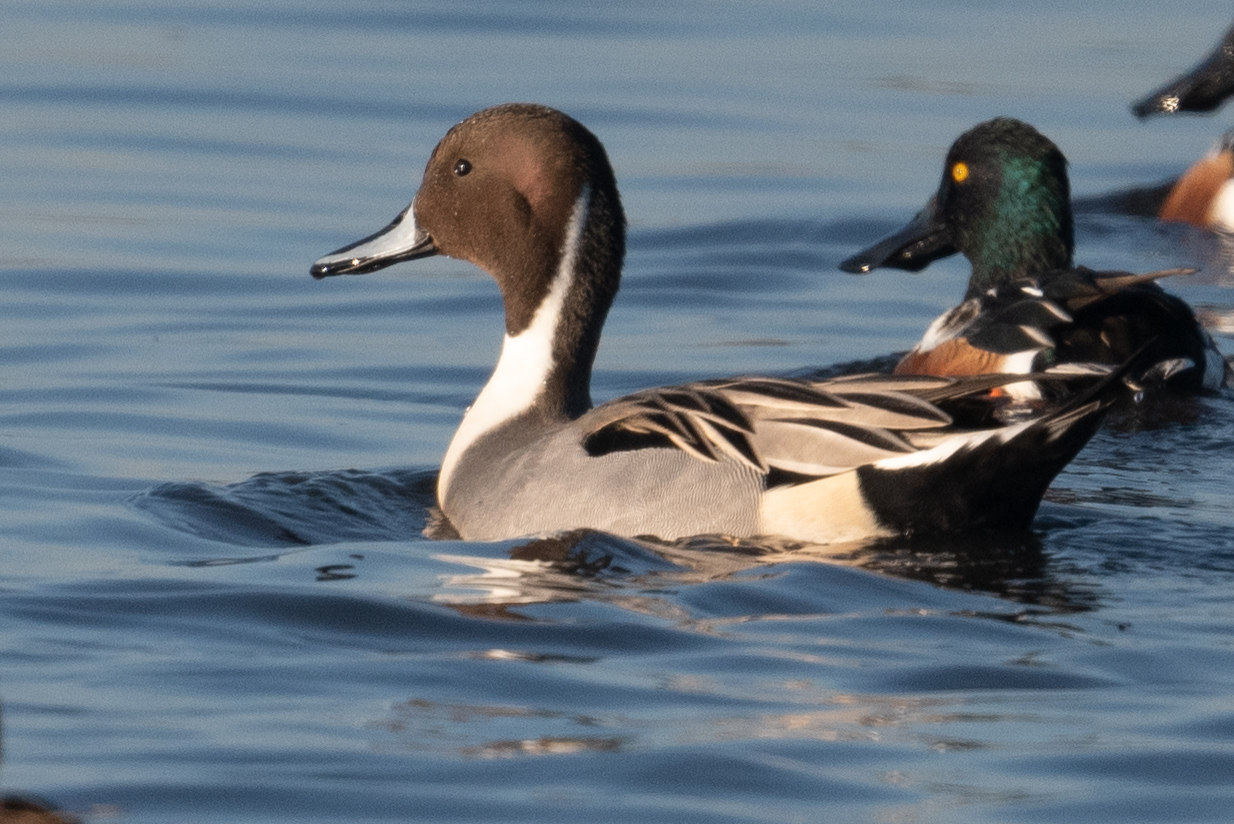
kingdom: Animalia
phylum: Chordata
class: Aves
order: Anseriformes
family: Anatidae
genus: Anas
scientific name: Anas acuta
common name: Northern pintail
